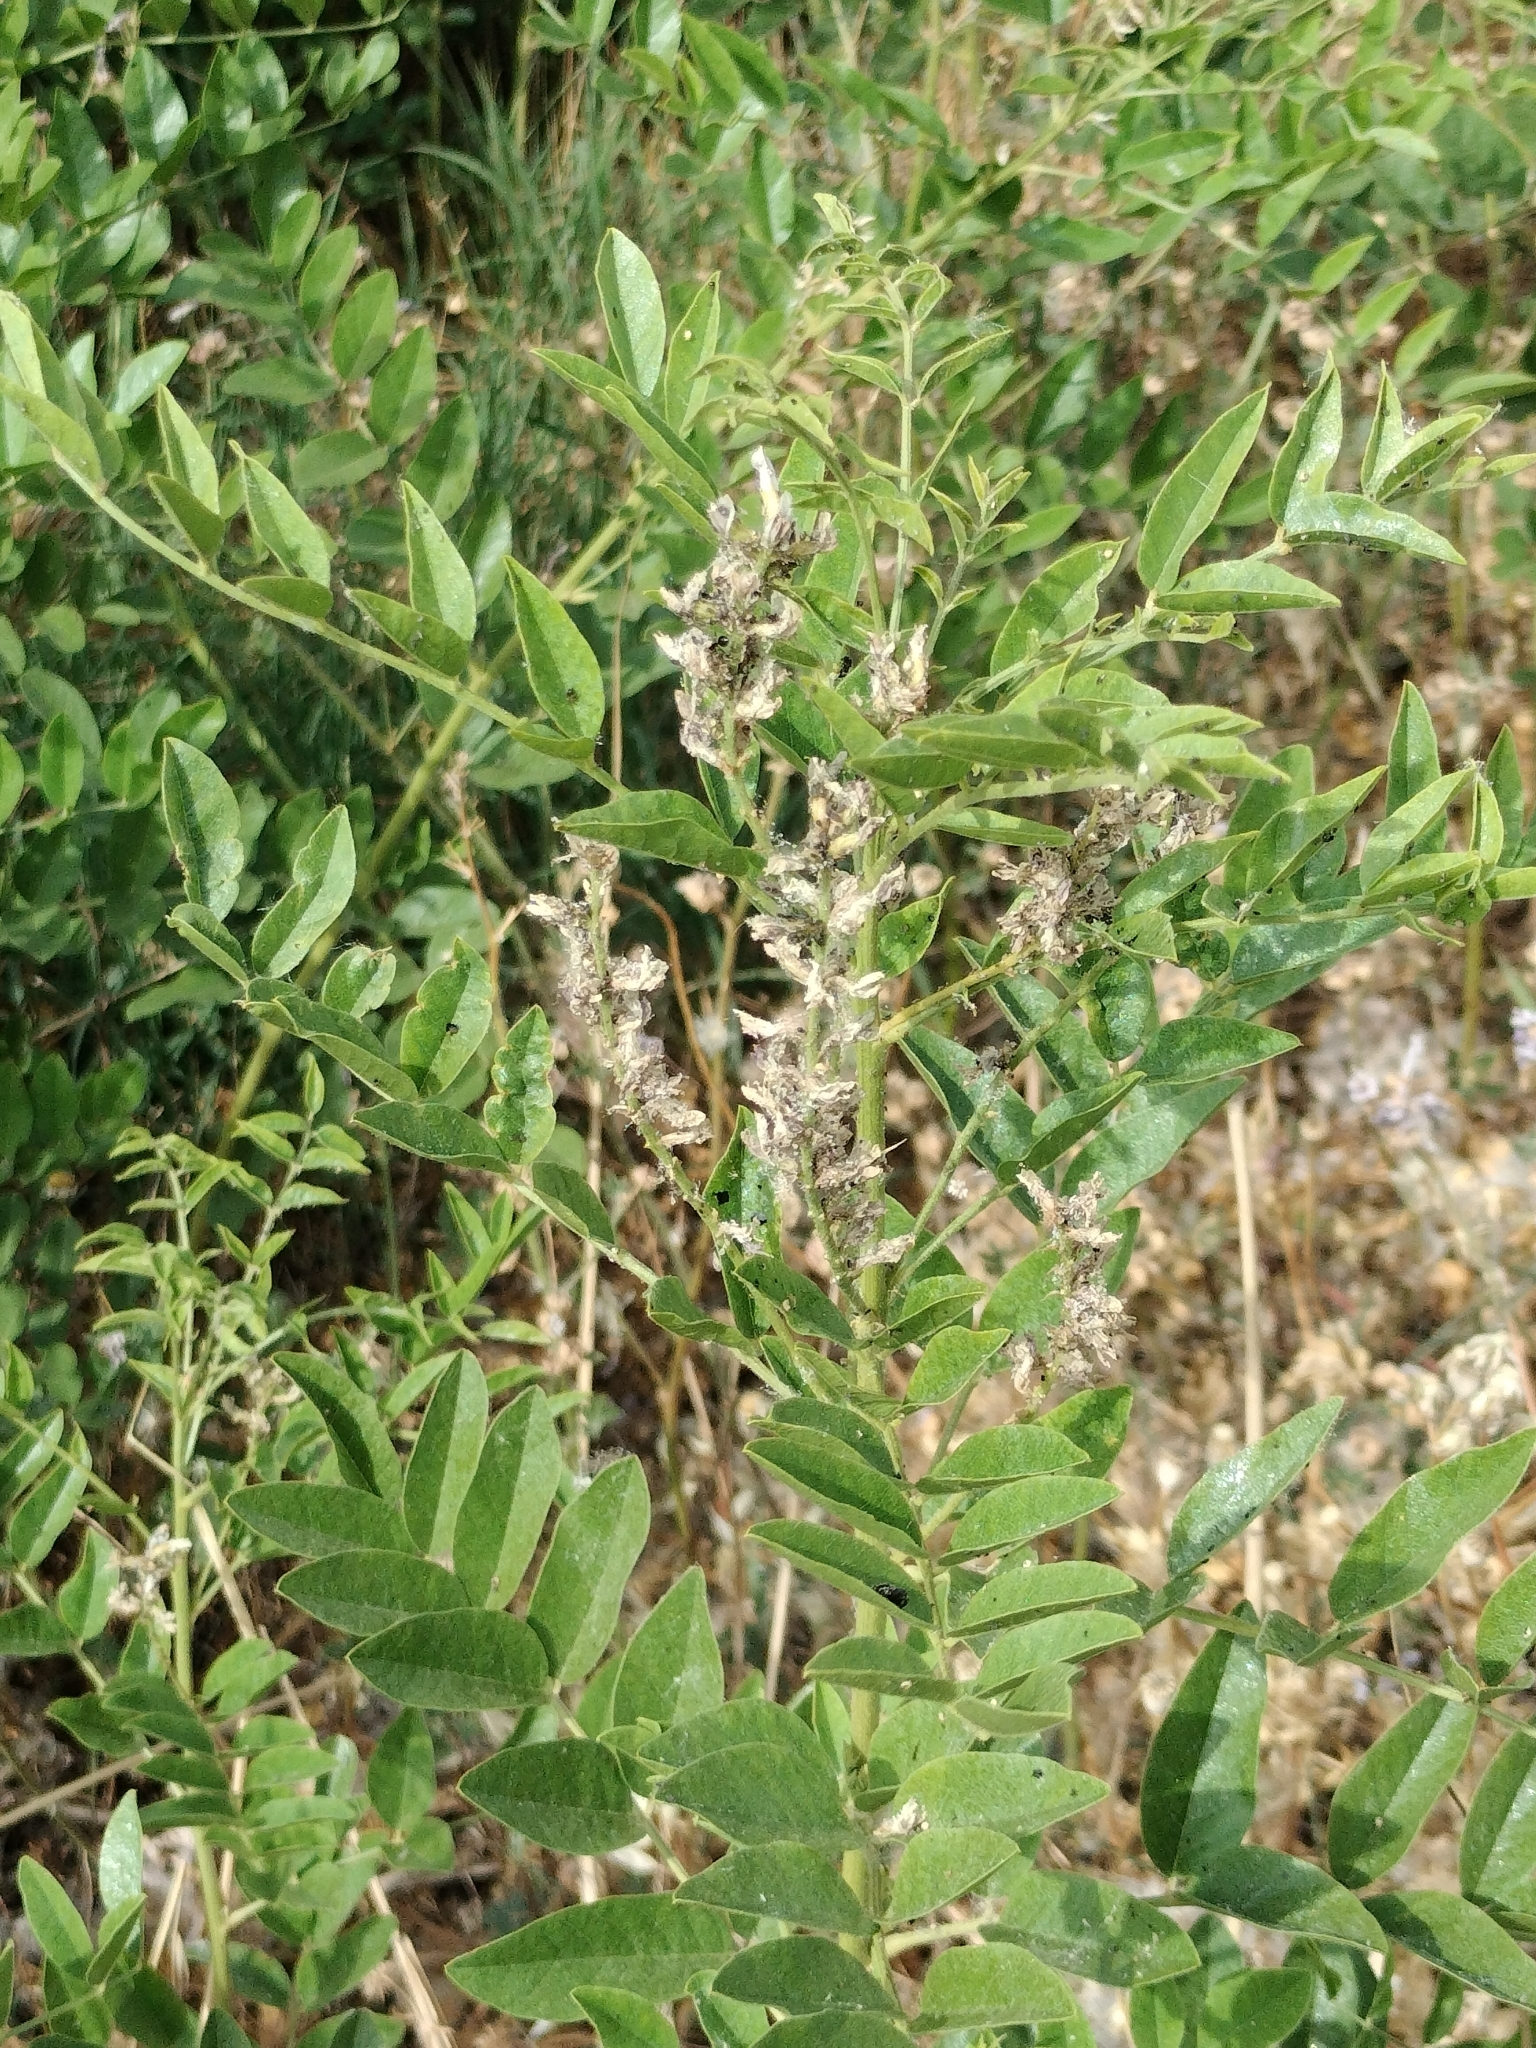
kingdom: Plantae
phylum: Tracheophyta
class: Magnoliopsida
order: Fabales
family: Fabaceae
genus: Glycyrrhiza
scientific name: Glycyrrhiza glabra
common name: Liquorice
